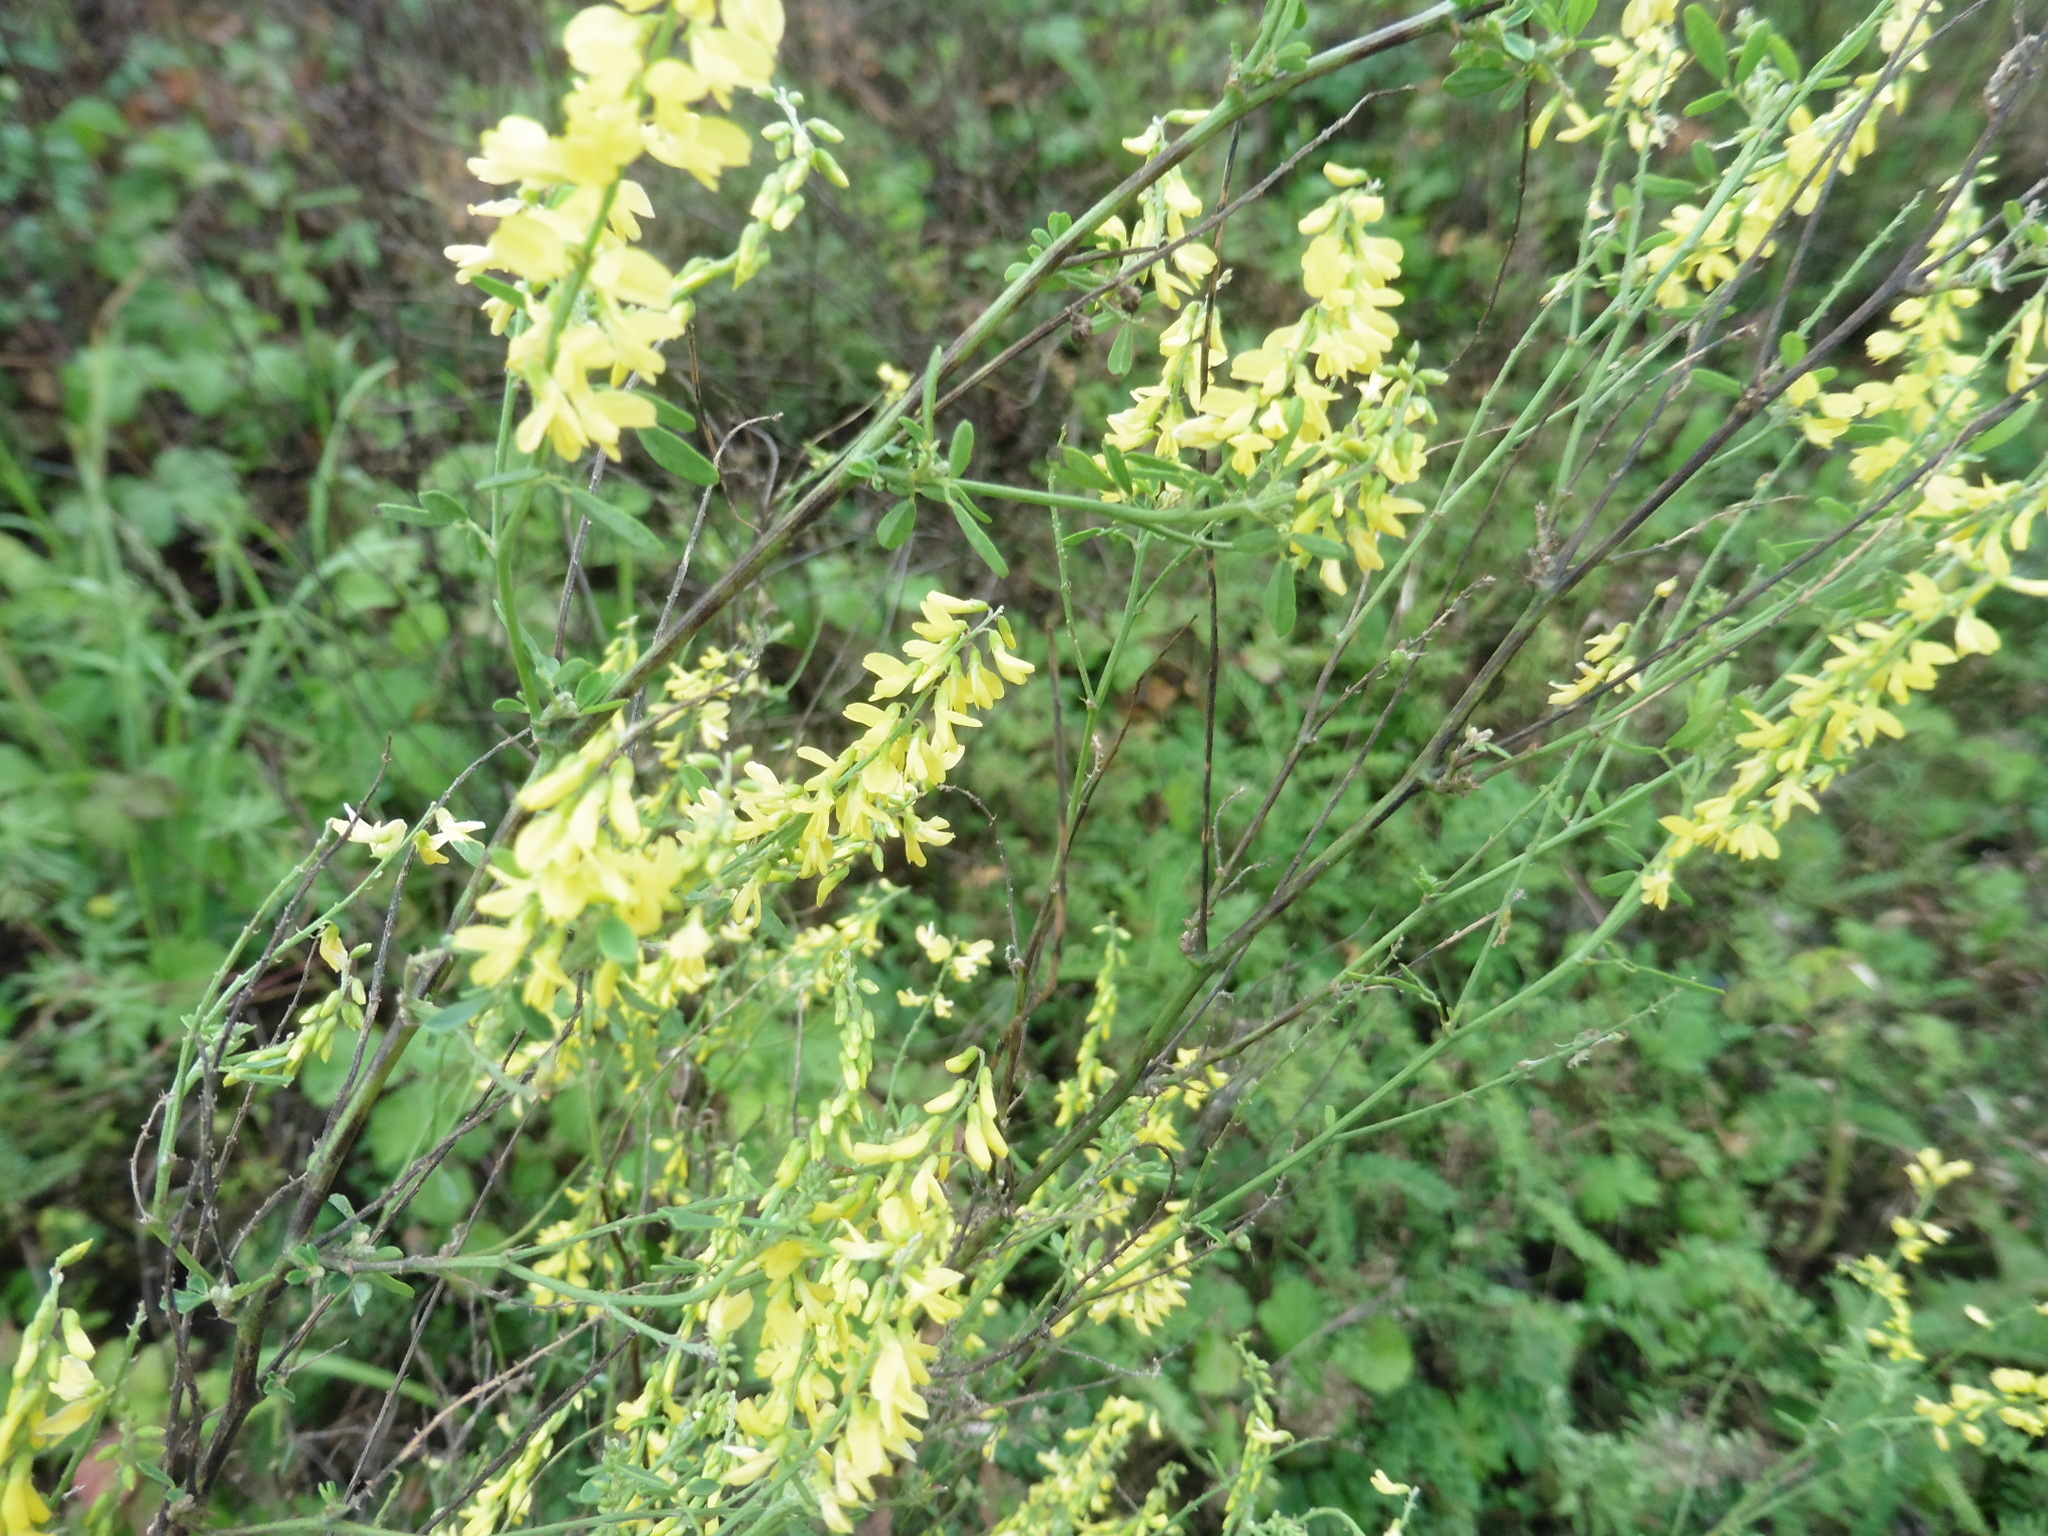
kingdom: Plantae
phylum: Tracheophyta
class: Magnoliopsida
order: Fabales
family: Fabaceae
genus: Melilotus
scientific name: Melilotus officinalis
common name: Sweetclover
